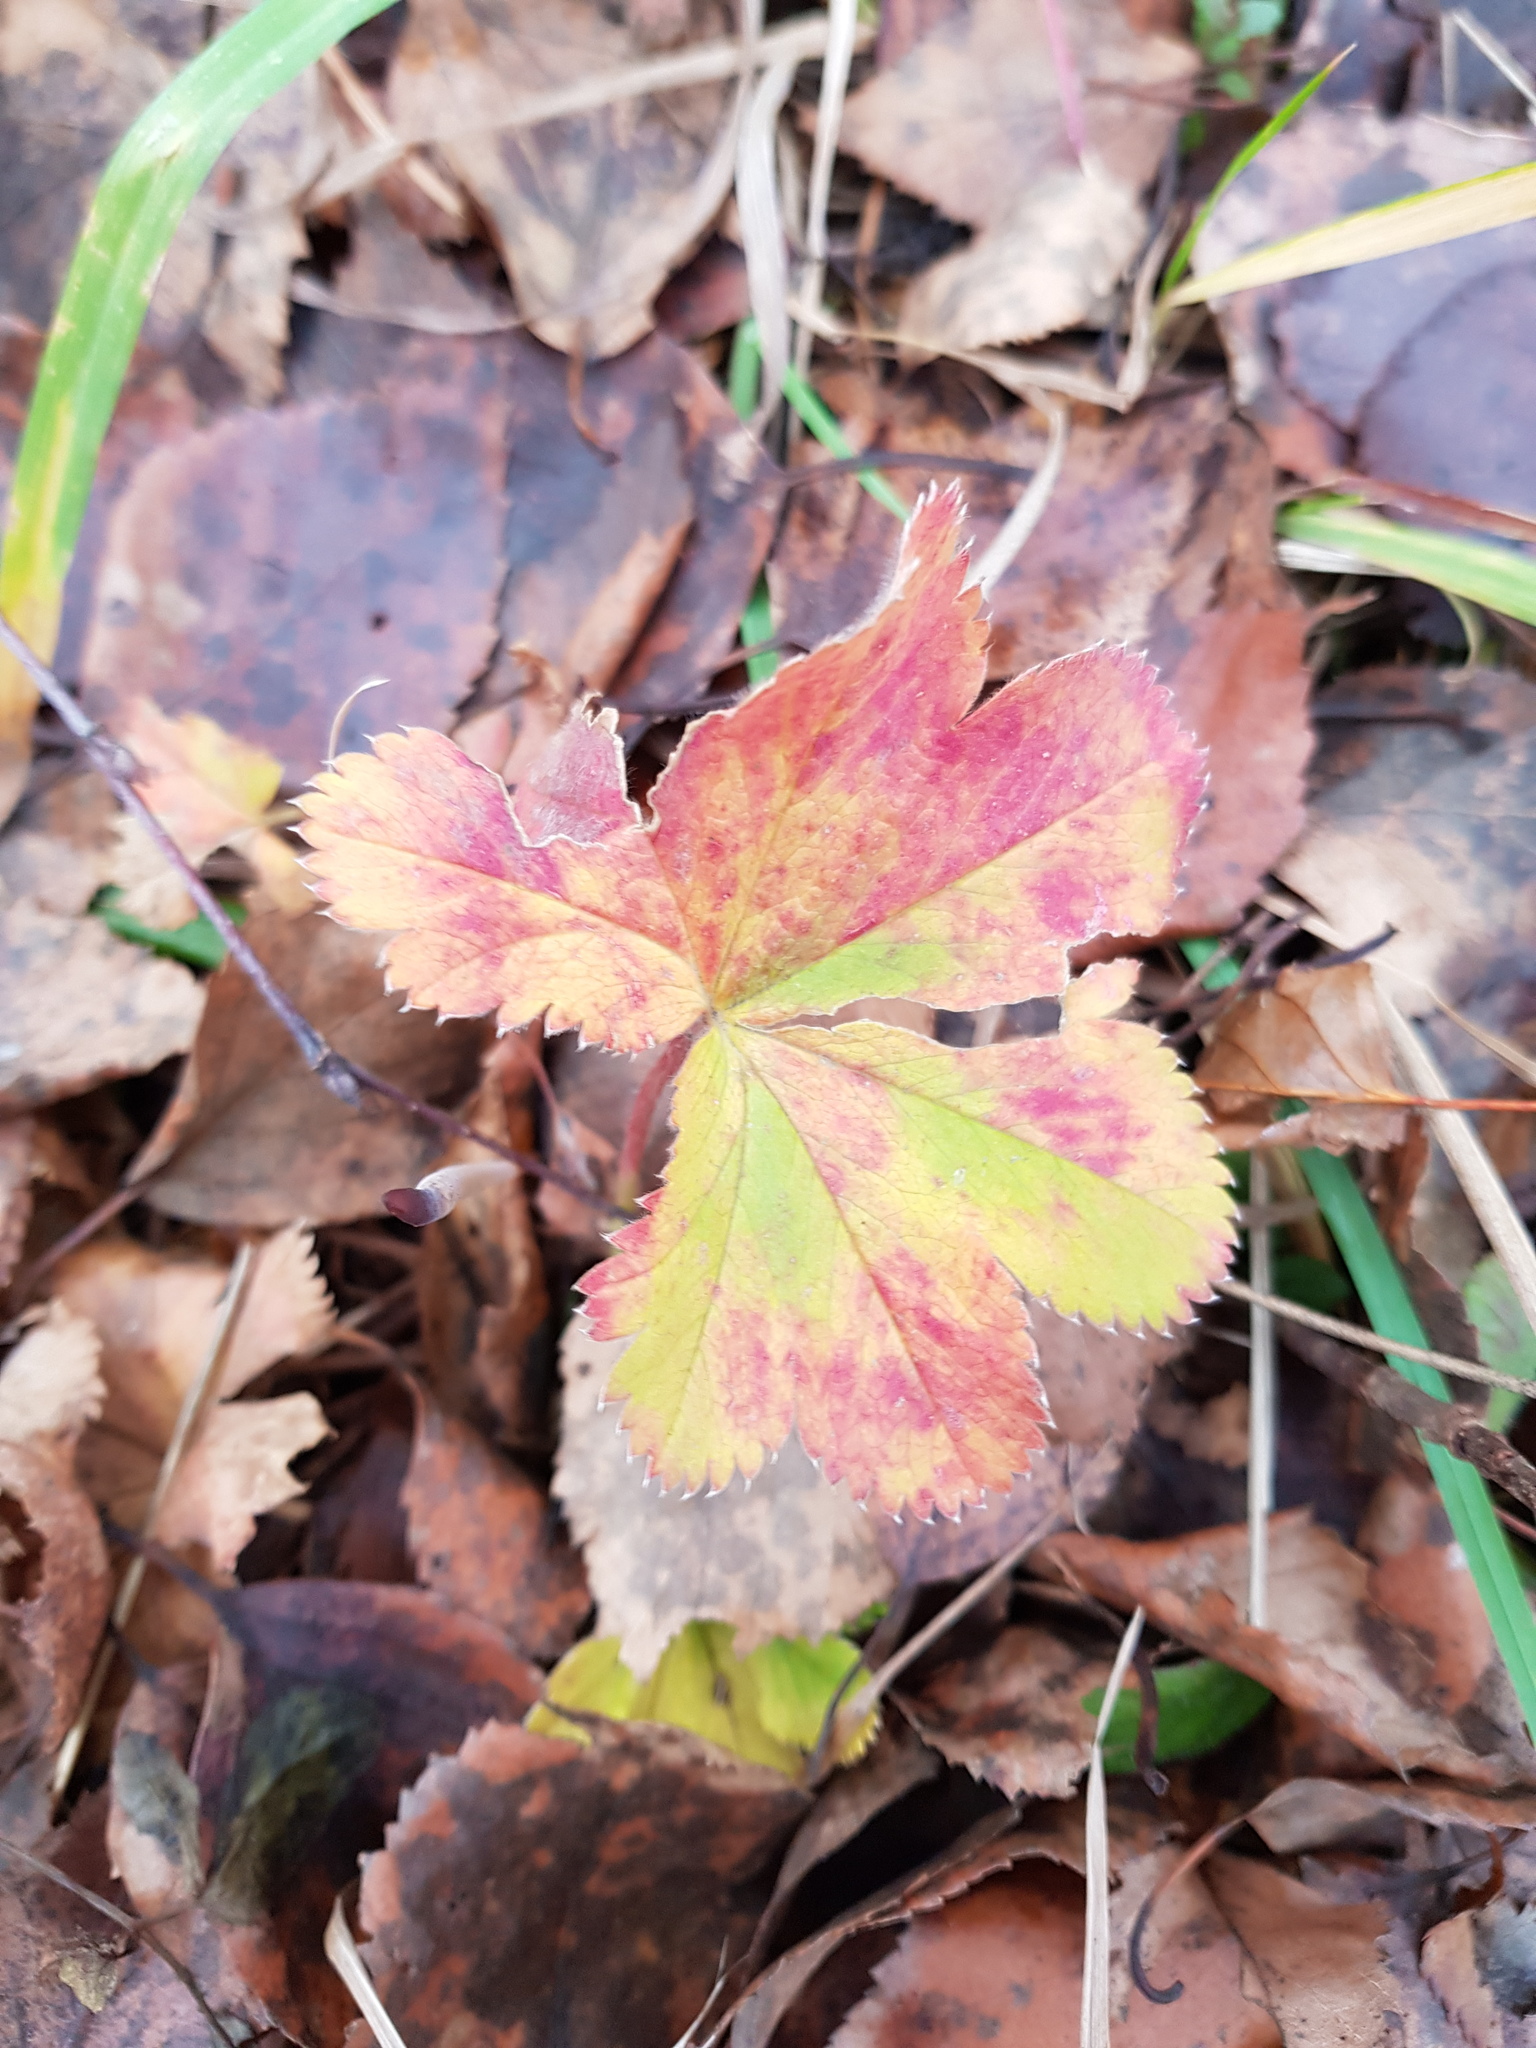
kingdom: Plantae
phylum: Tracheophyta
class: Magnoliopsida
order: Rosales
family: Rosaceae
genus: Alchemilla
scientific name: Alchemilla
